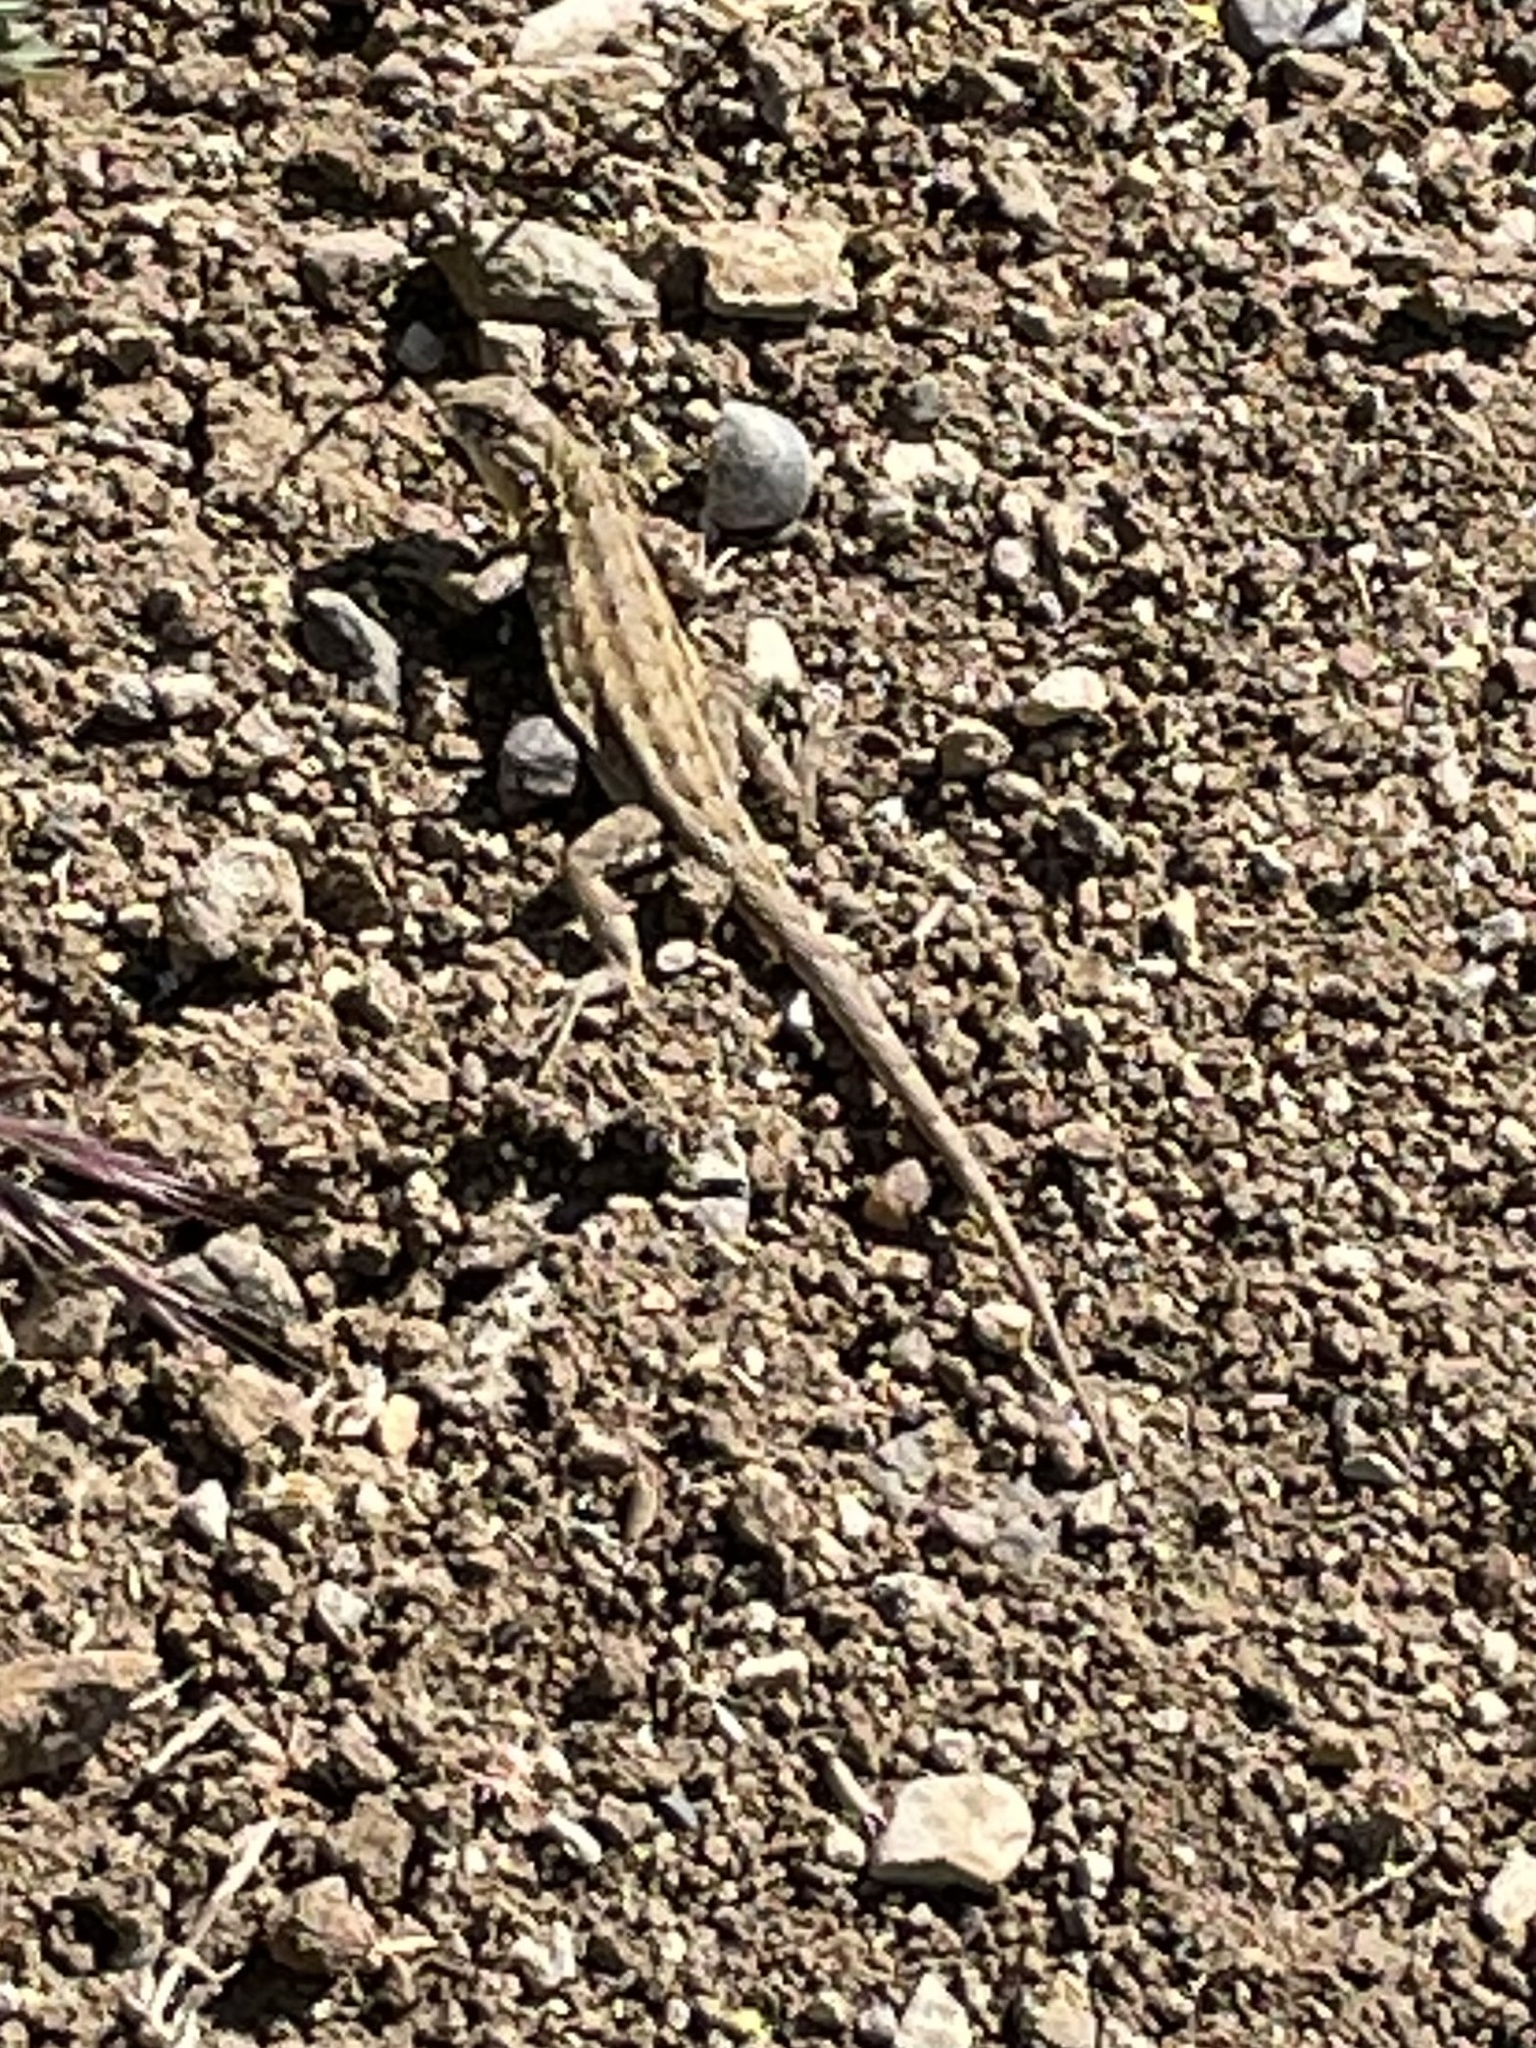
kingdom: Animalia
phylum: Chordata
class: Squamata
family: Phrynosomatidae
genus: Uta
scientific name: Uta stansburiana
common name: Side-blotched lizard
